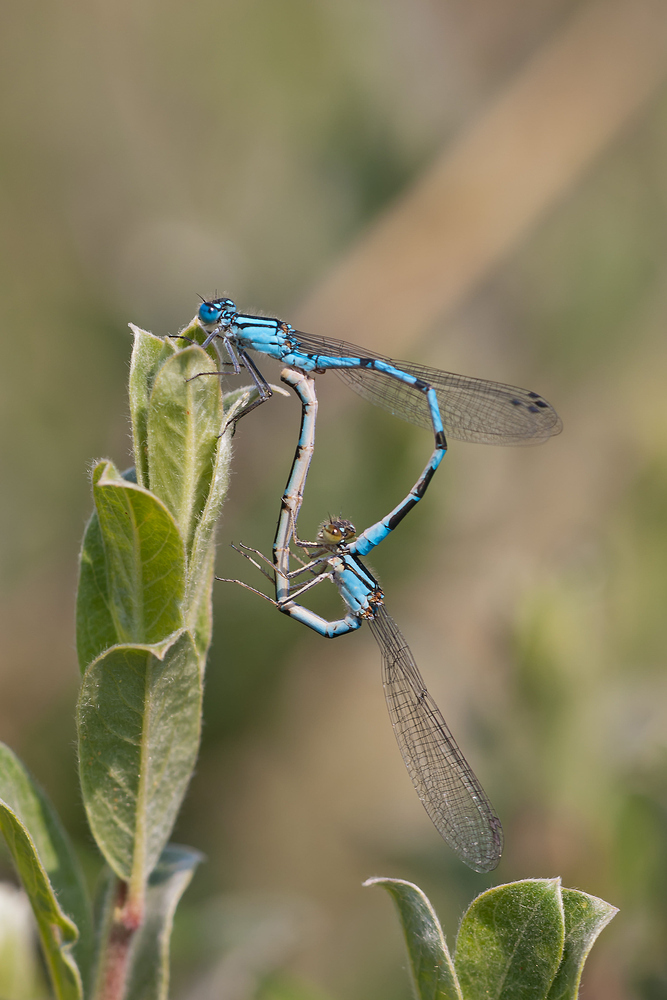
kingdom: Animalia
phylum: Arthropoda
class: Insecta
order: Odonata
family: Coenagrionidae
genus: Enallagma
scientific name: Enallagma cyathigerum
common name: Common blue damselfly
